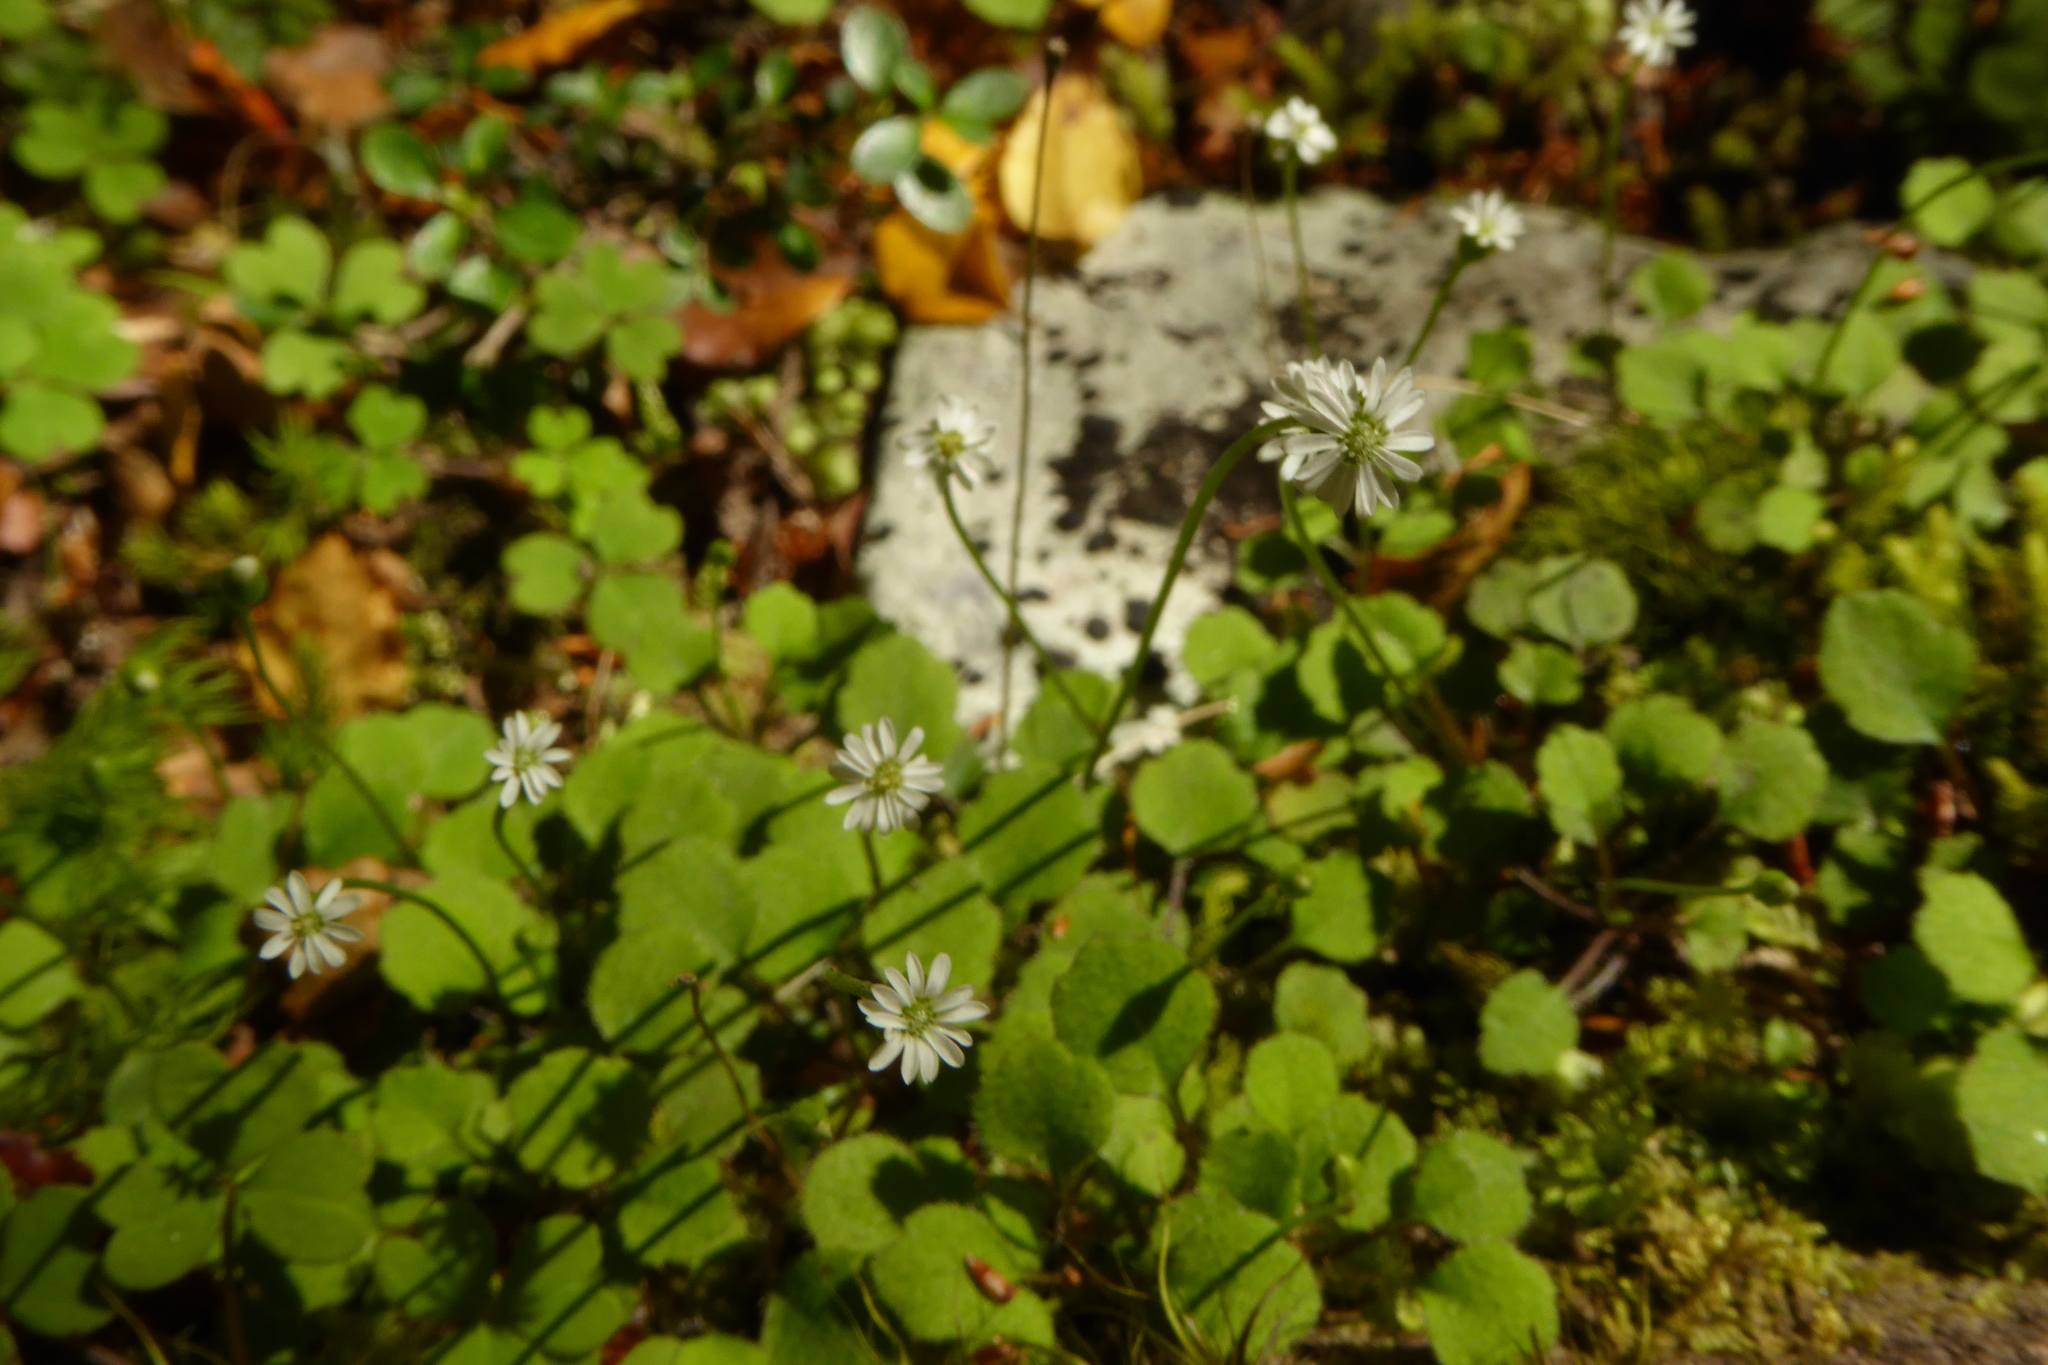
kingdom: Plantae
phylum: Tracheophyta
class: Magnoliopsida
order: Asterales
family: Asteraceae
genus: Lagenophora
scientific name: Lagenophora strangulata
